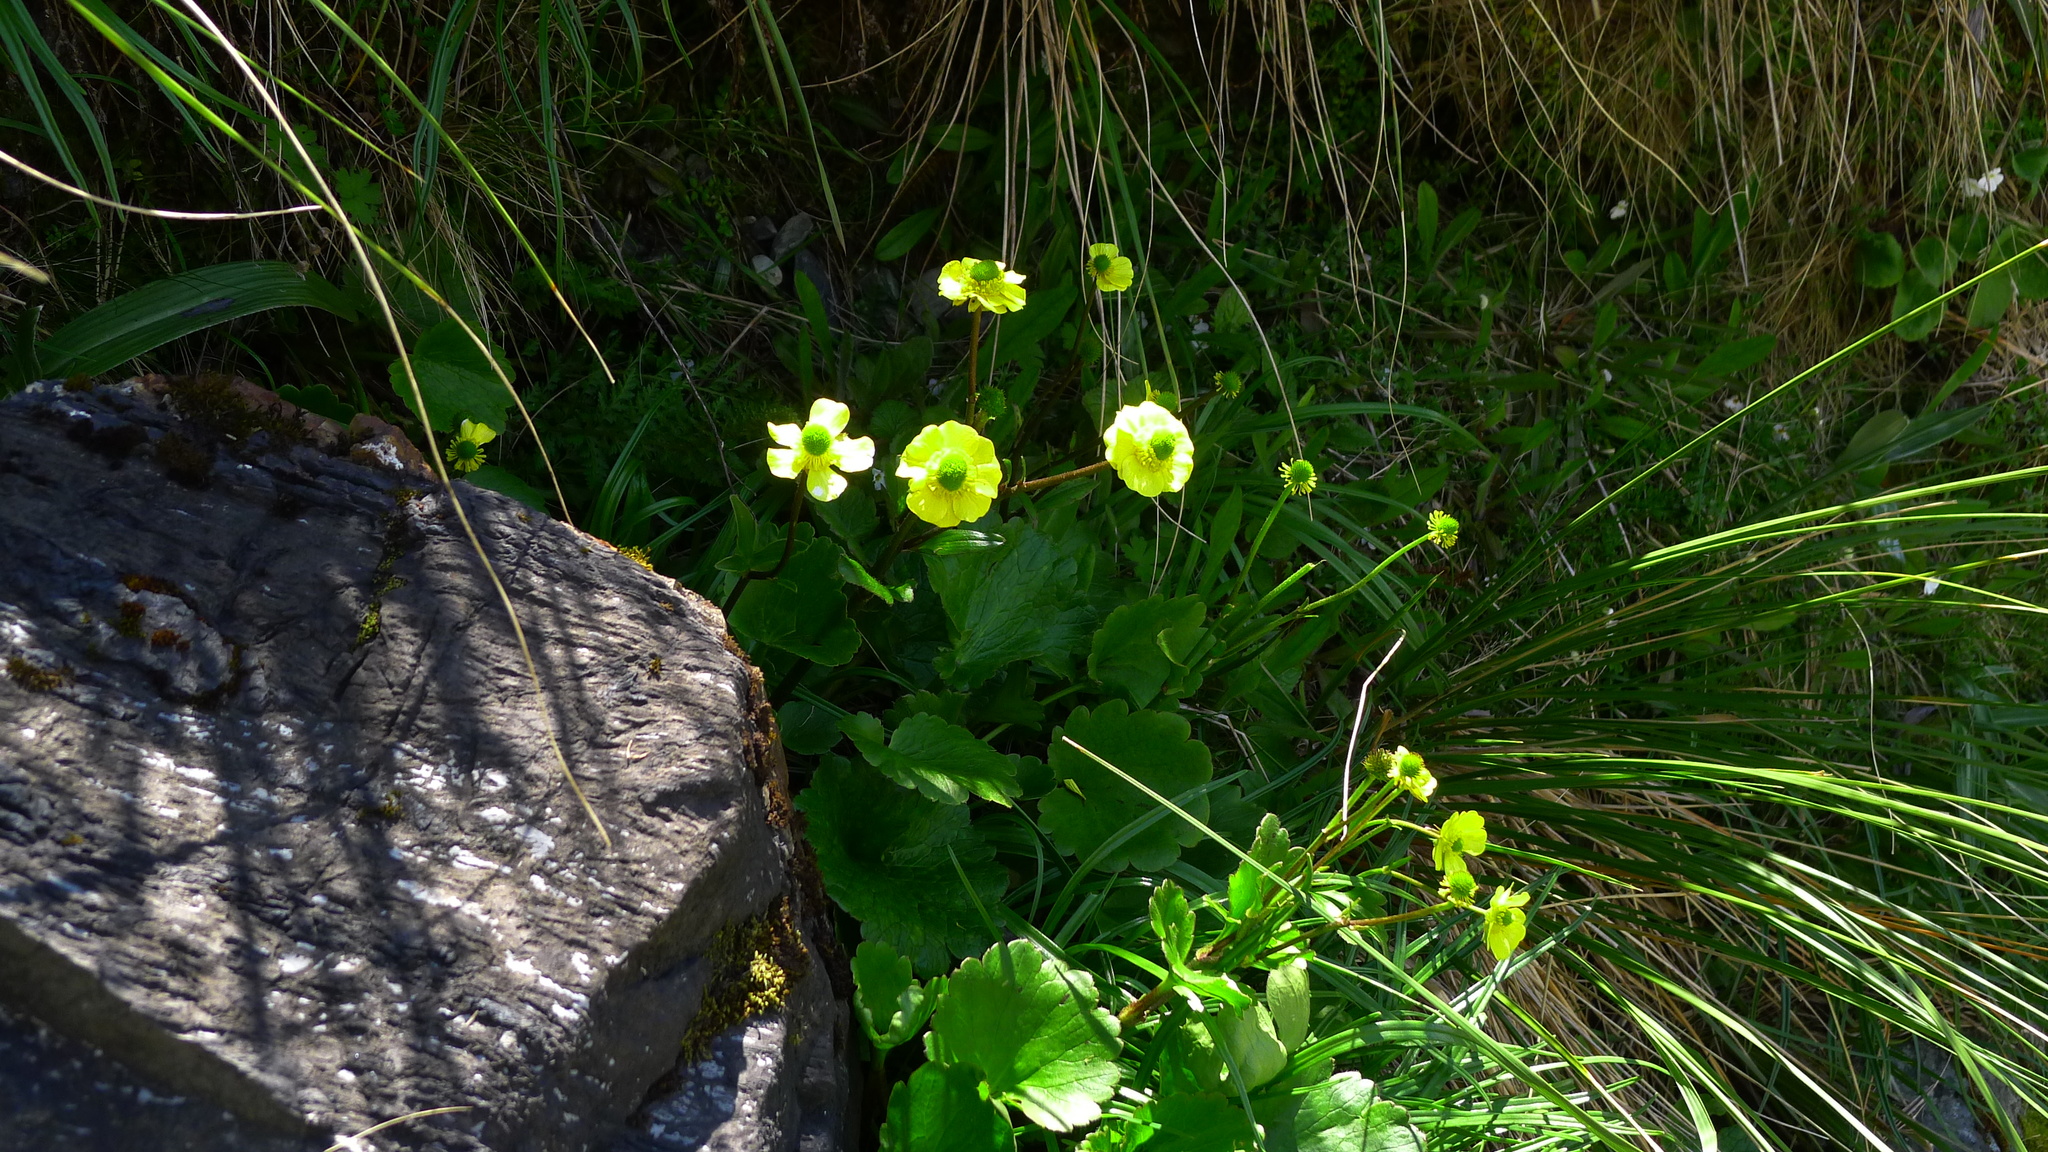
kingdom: Plantae
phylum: Tracheophyta
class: Magnoliopsida
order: Ranunculales
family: Ranunculaceae
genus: Ranunculus
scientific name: Ranunculus insignis
